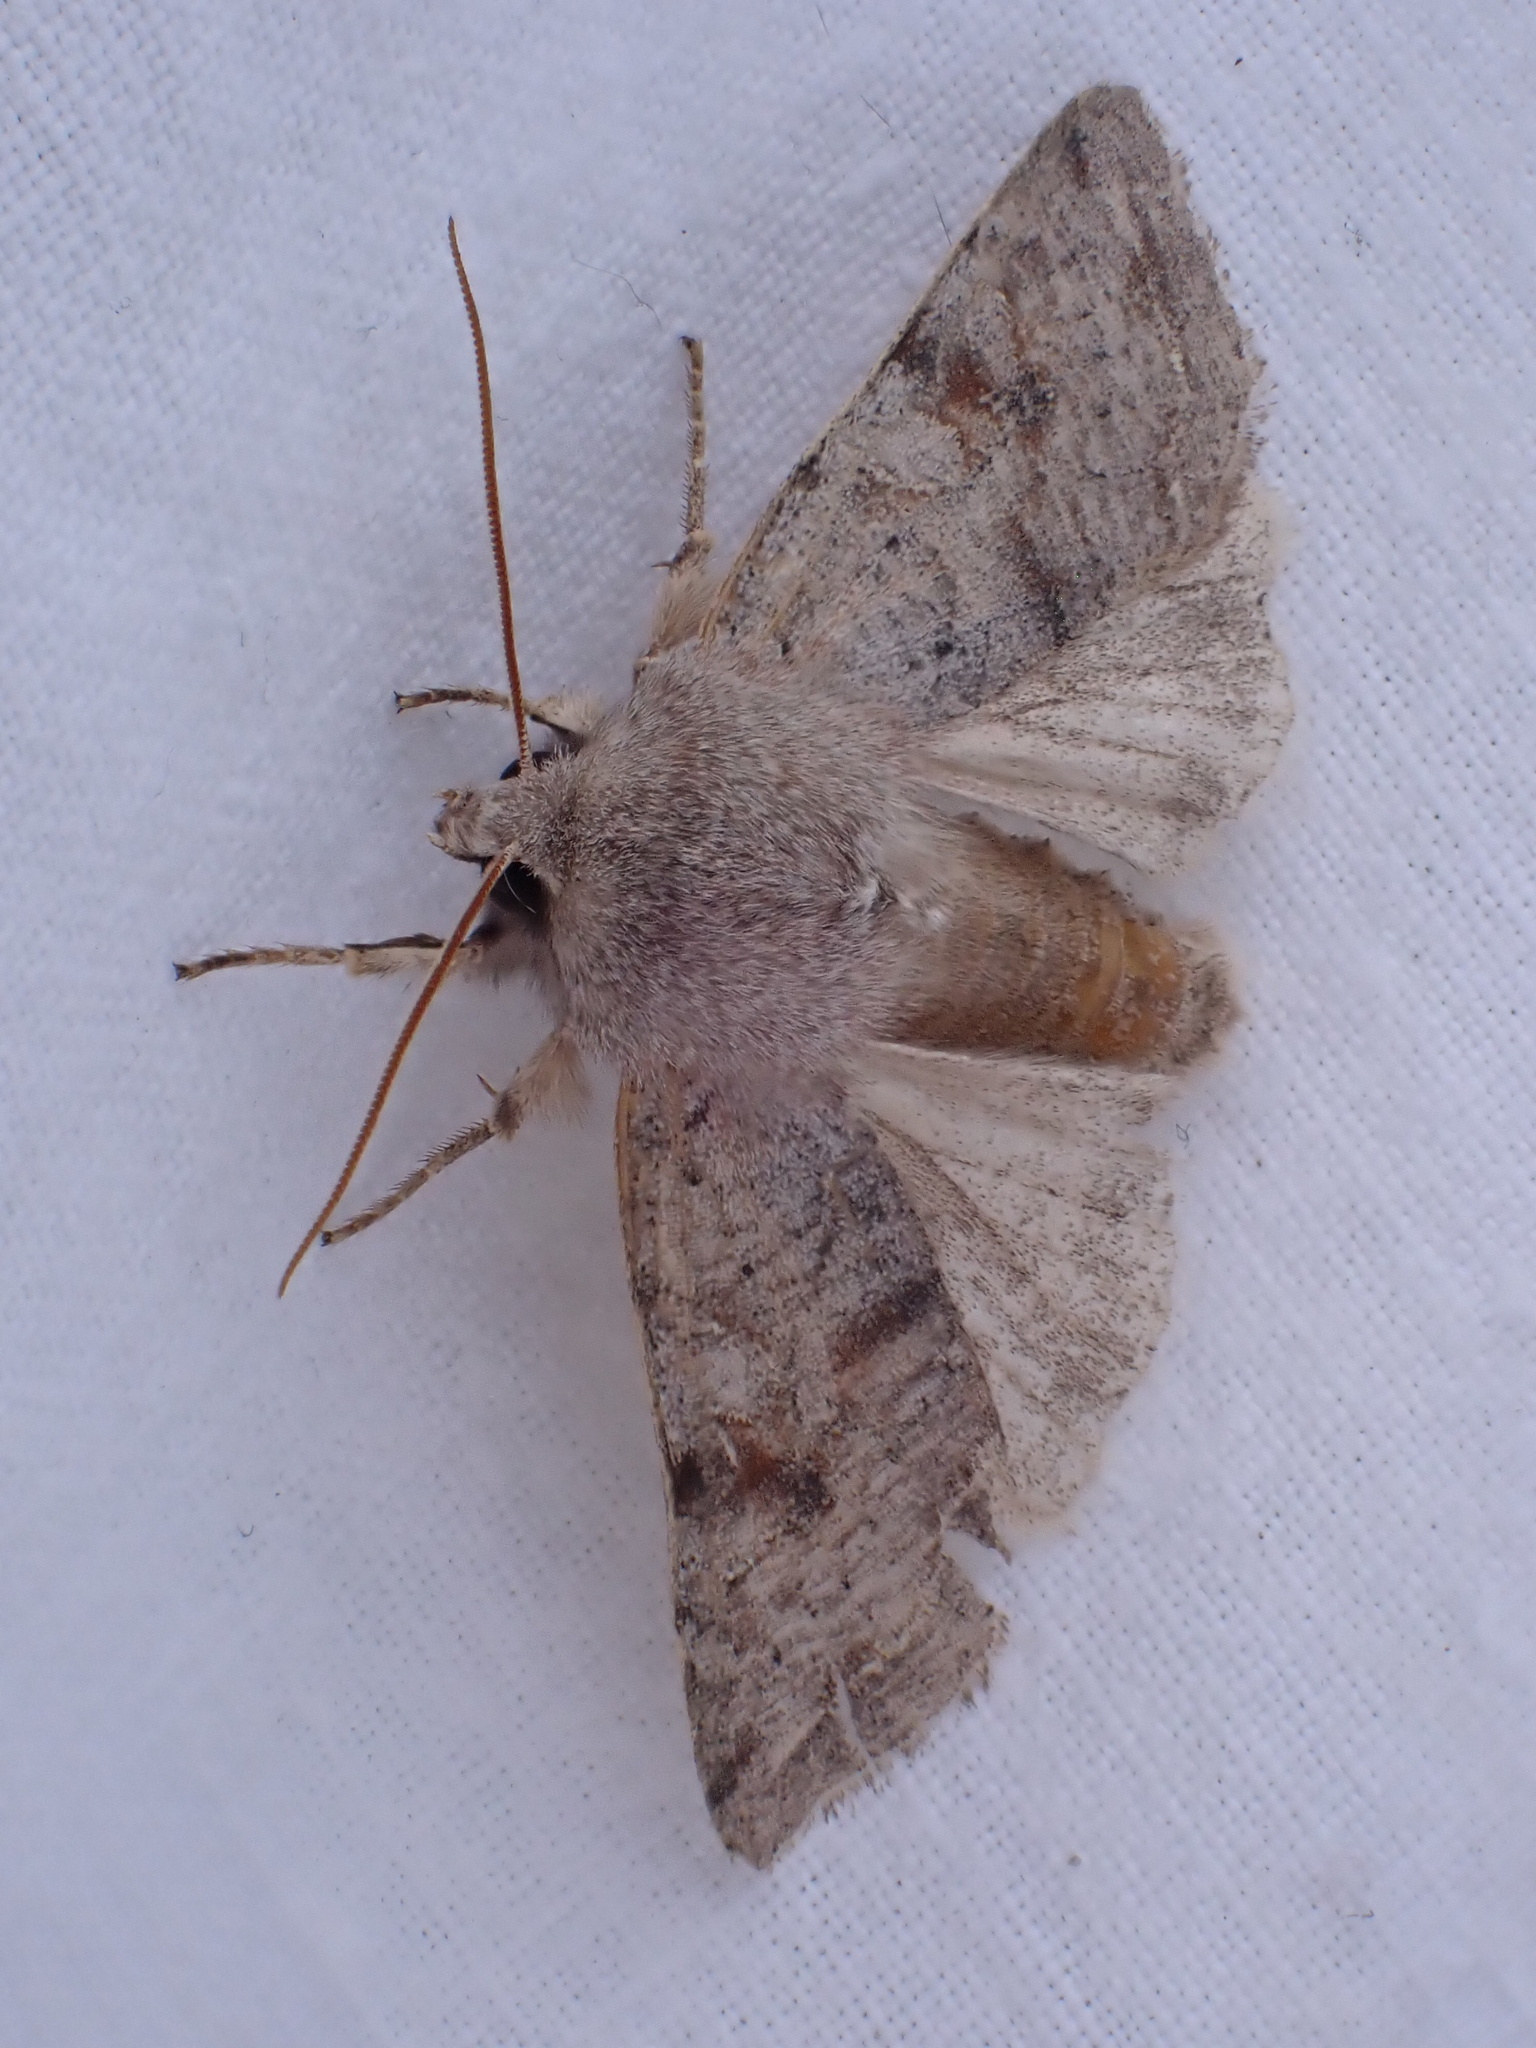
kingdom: Animalia
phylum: Arthropoda
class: Insecta
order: Lepidoptera
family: Noctuidae
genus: Orthosia
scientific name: Orthosia incerta
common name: Clouded drab
